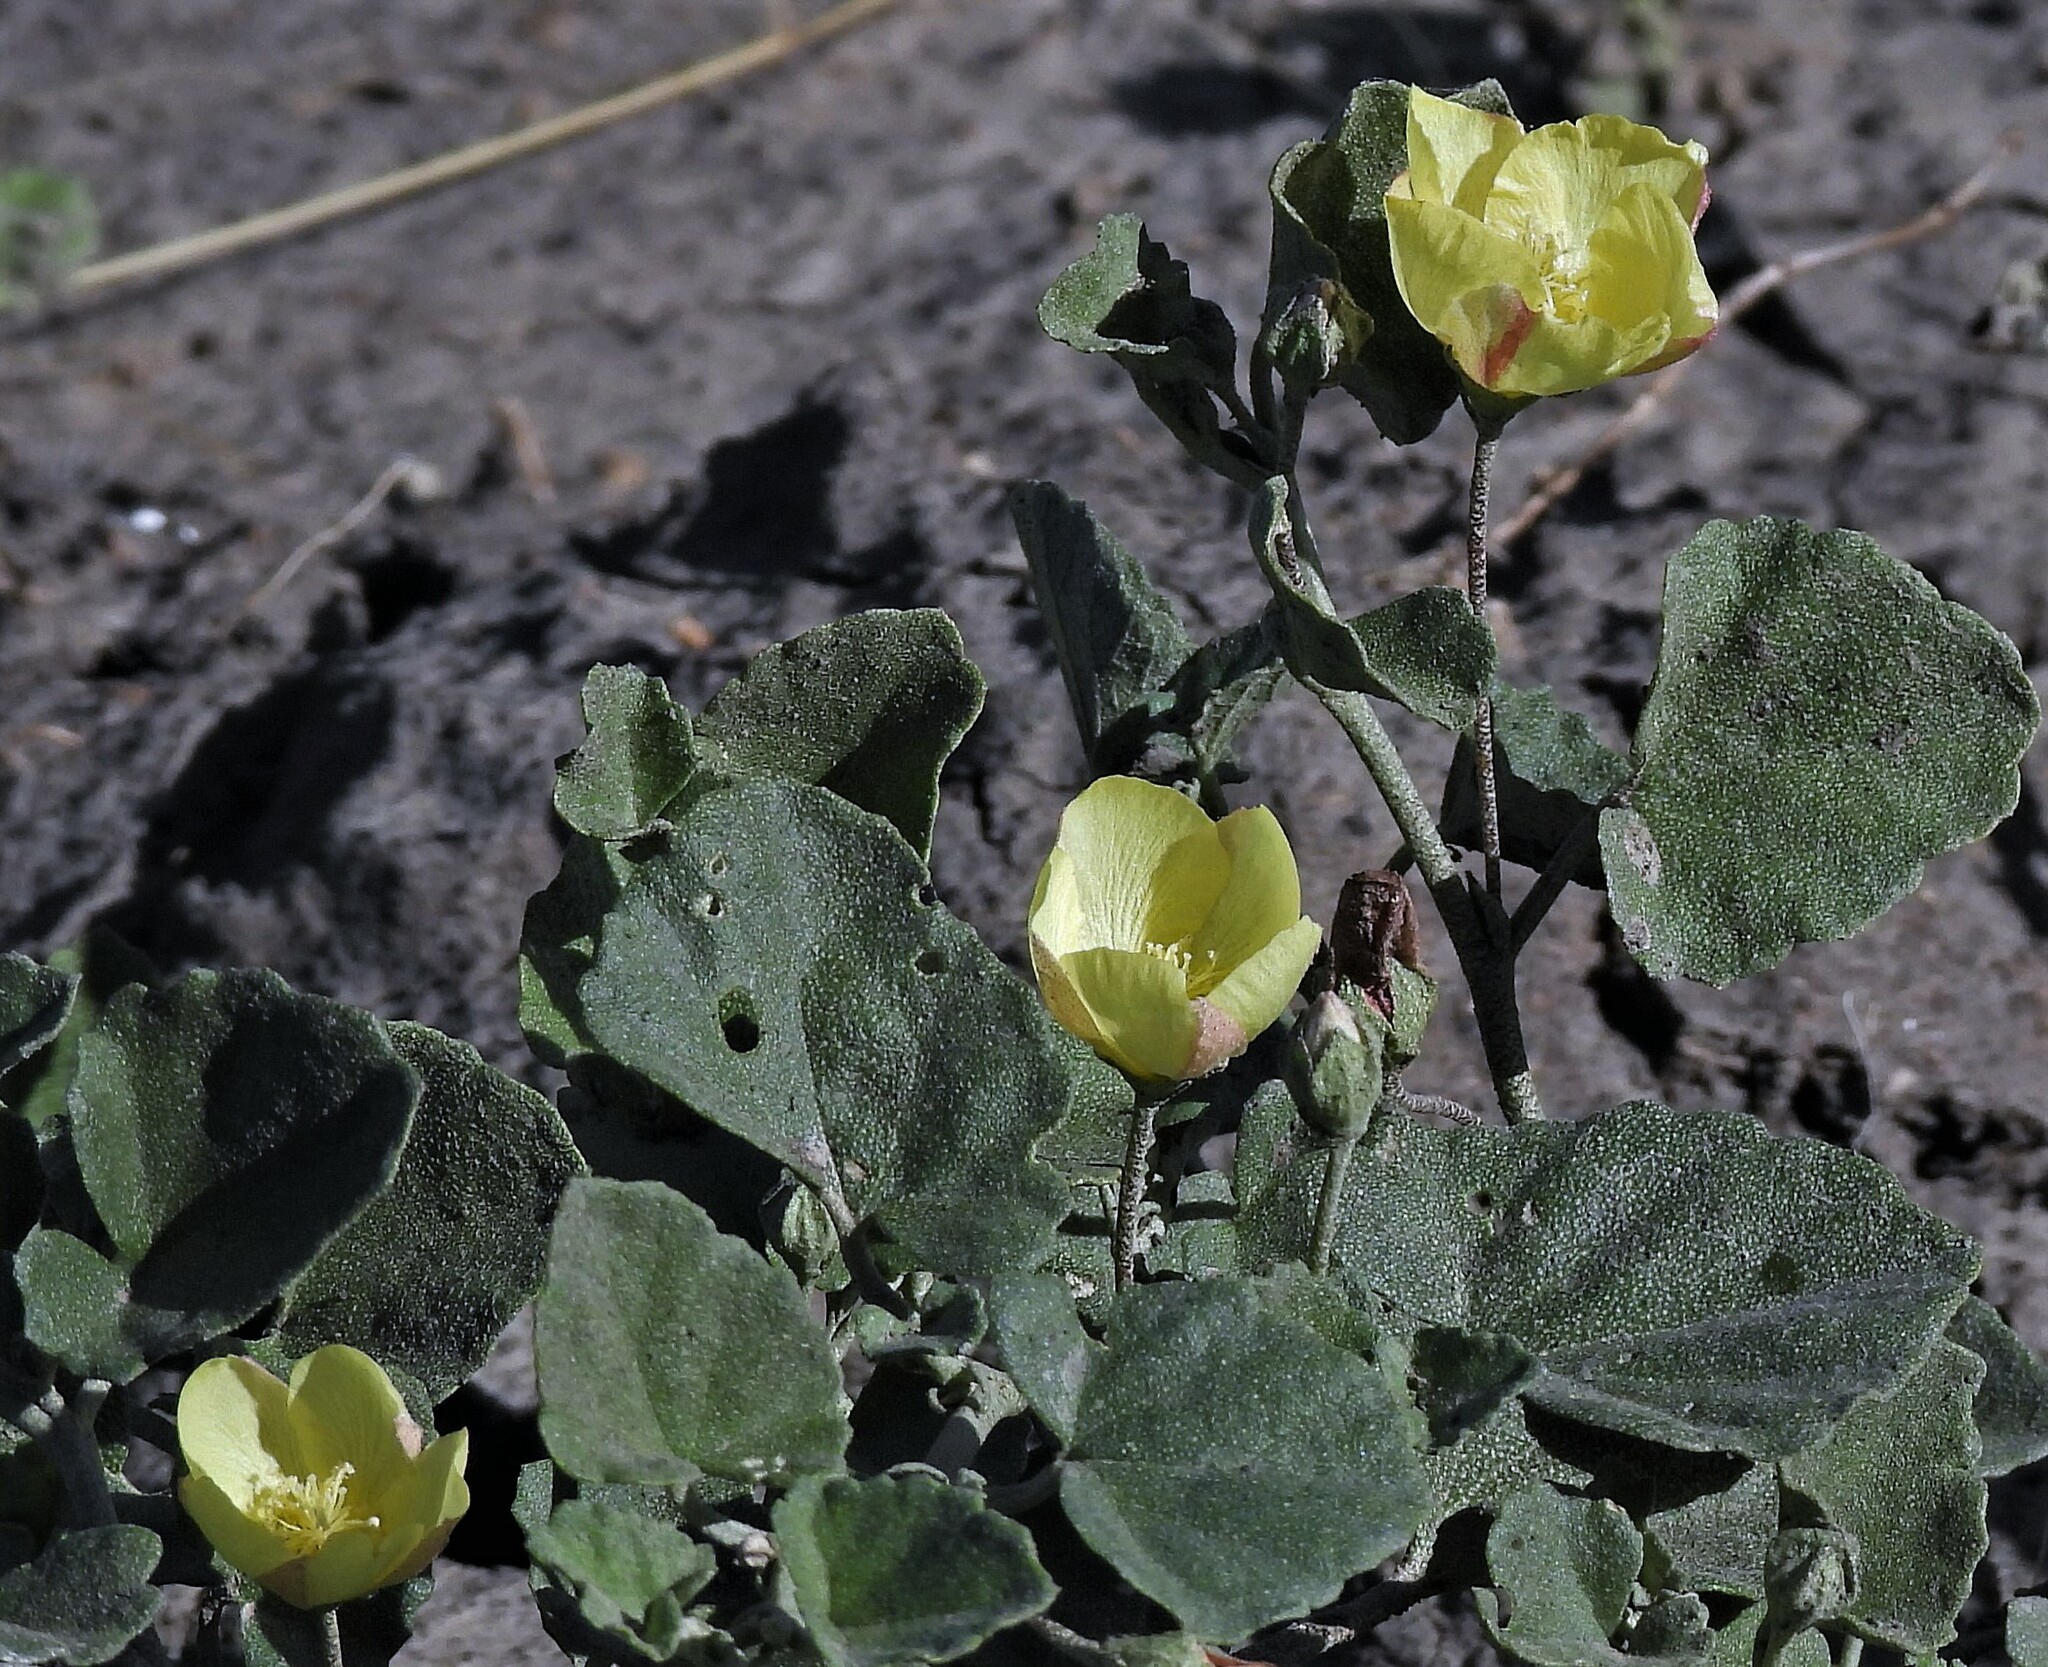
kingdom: Plantae
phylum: Tracheophyta
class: Magnoliopsida
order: Malvales
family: Malvaceae
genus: Malvella
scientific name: Malvella leprosa
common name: Alkali-mallow
